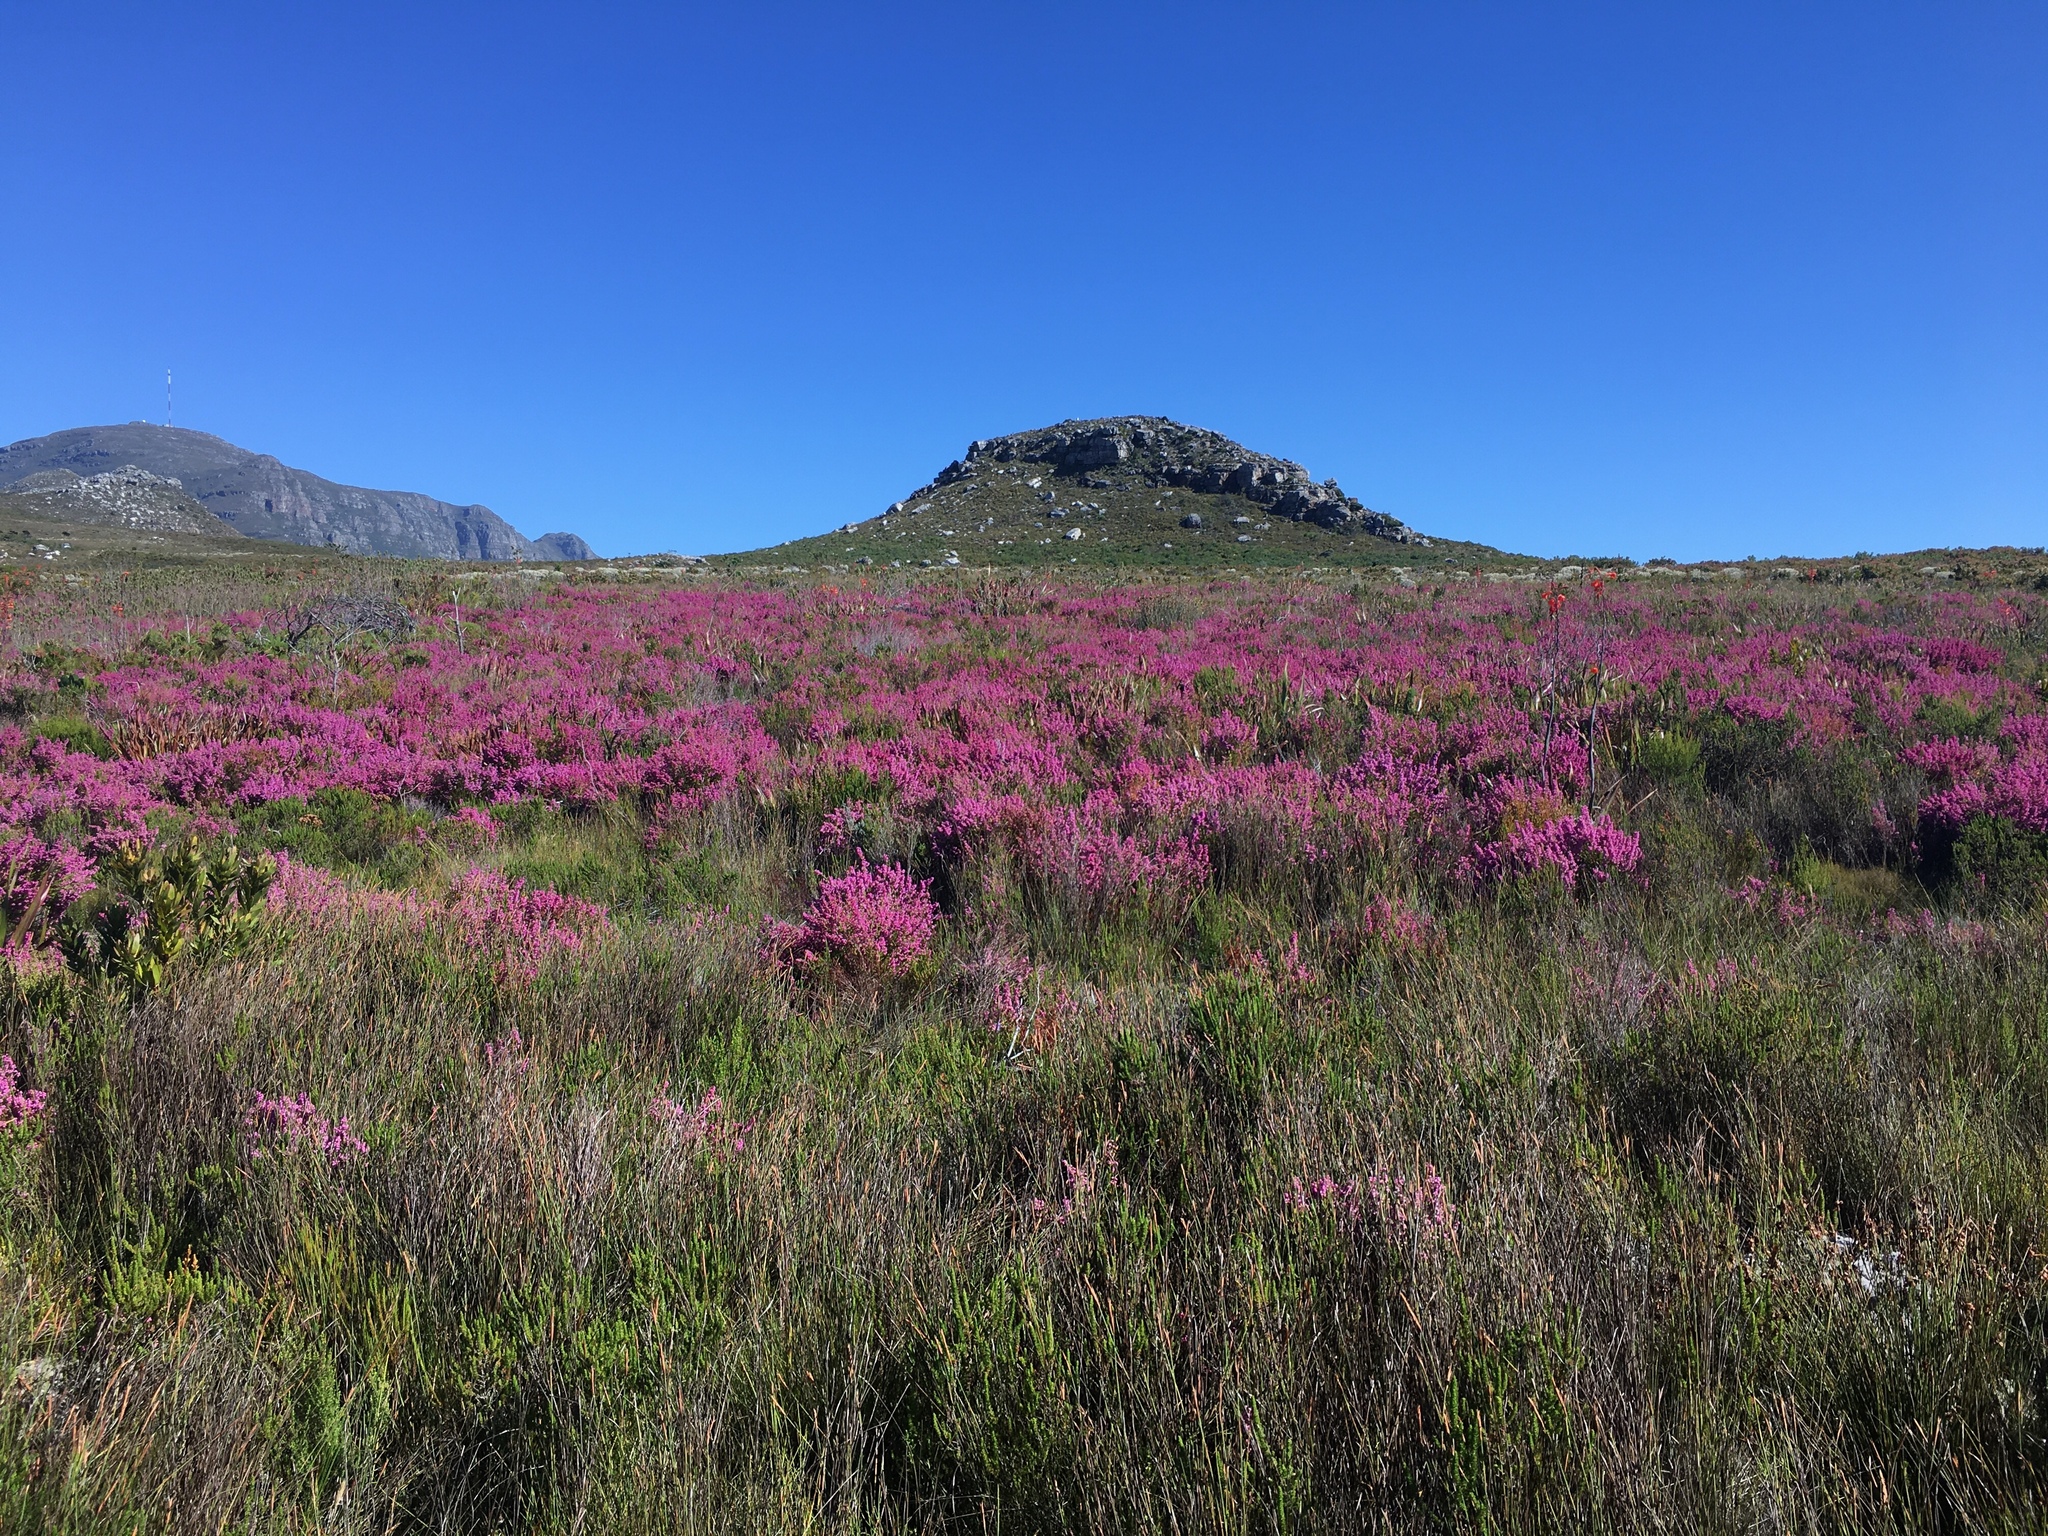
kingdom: Plantae
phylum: Tracheophyta
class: Magnoliopsida
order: Ericales
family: Ericaceae
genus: Erica
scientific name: Erica laeta
